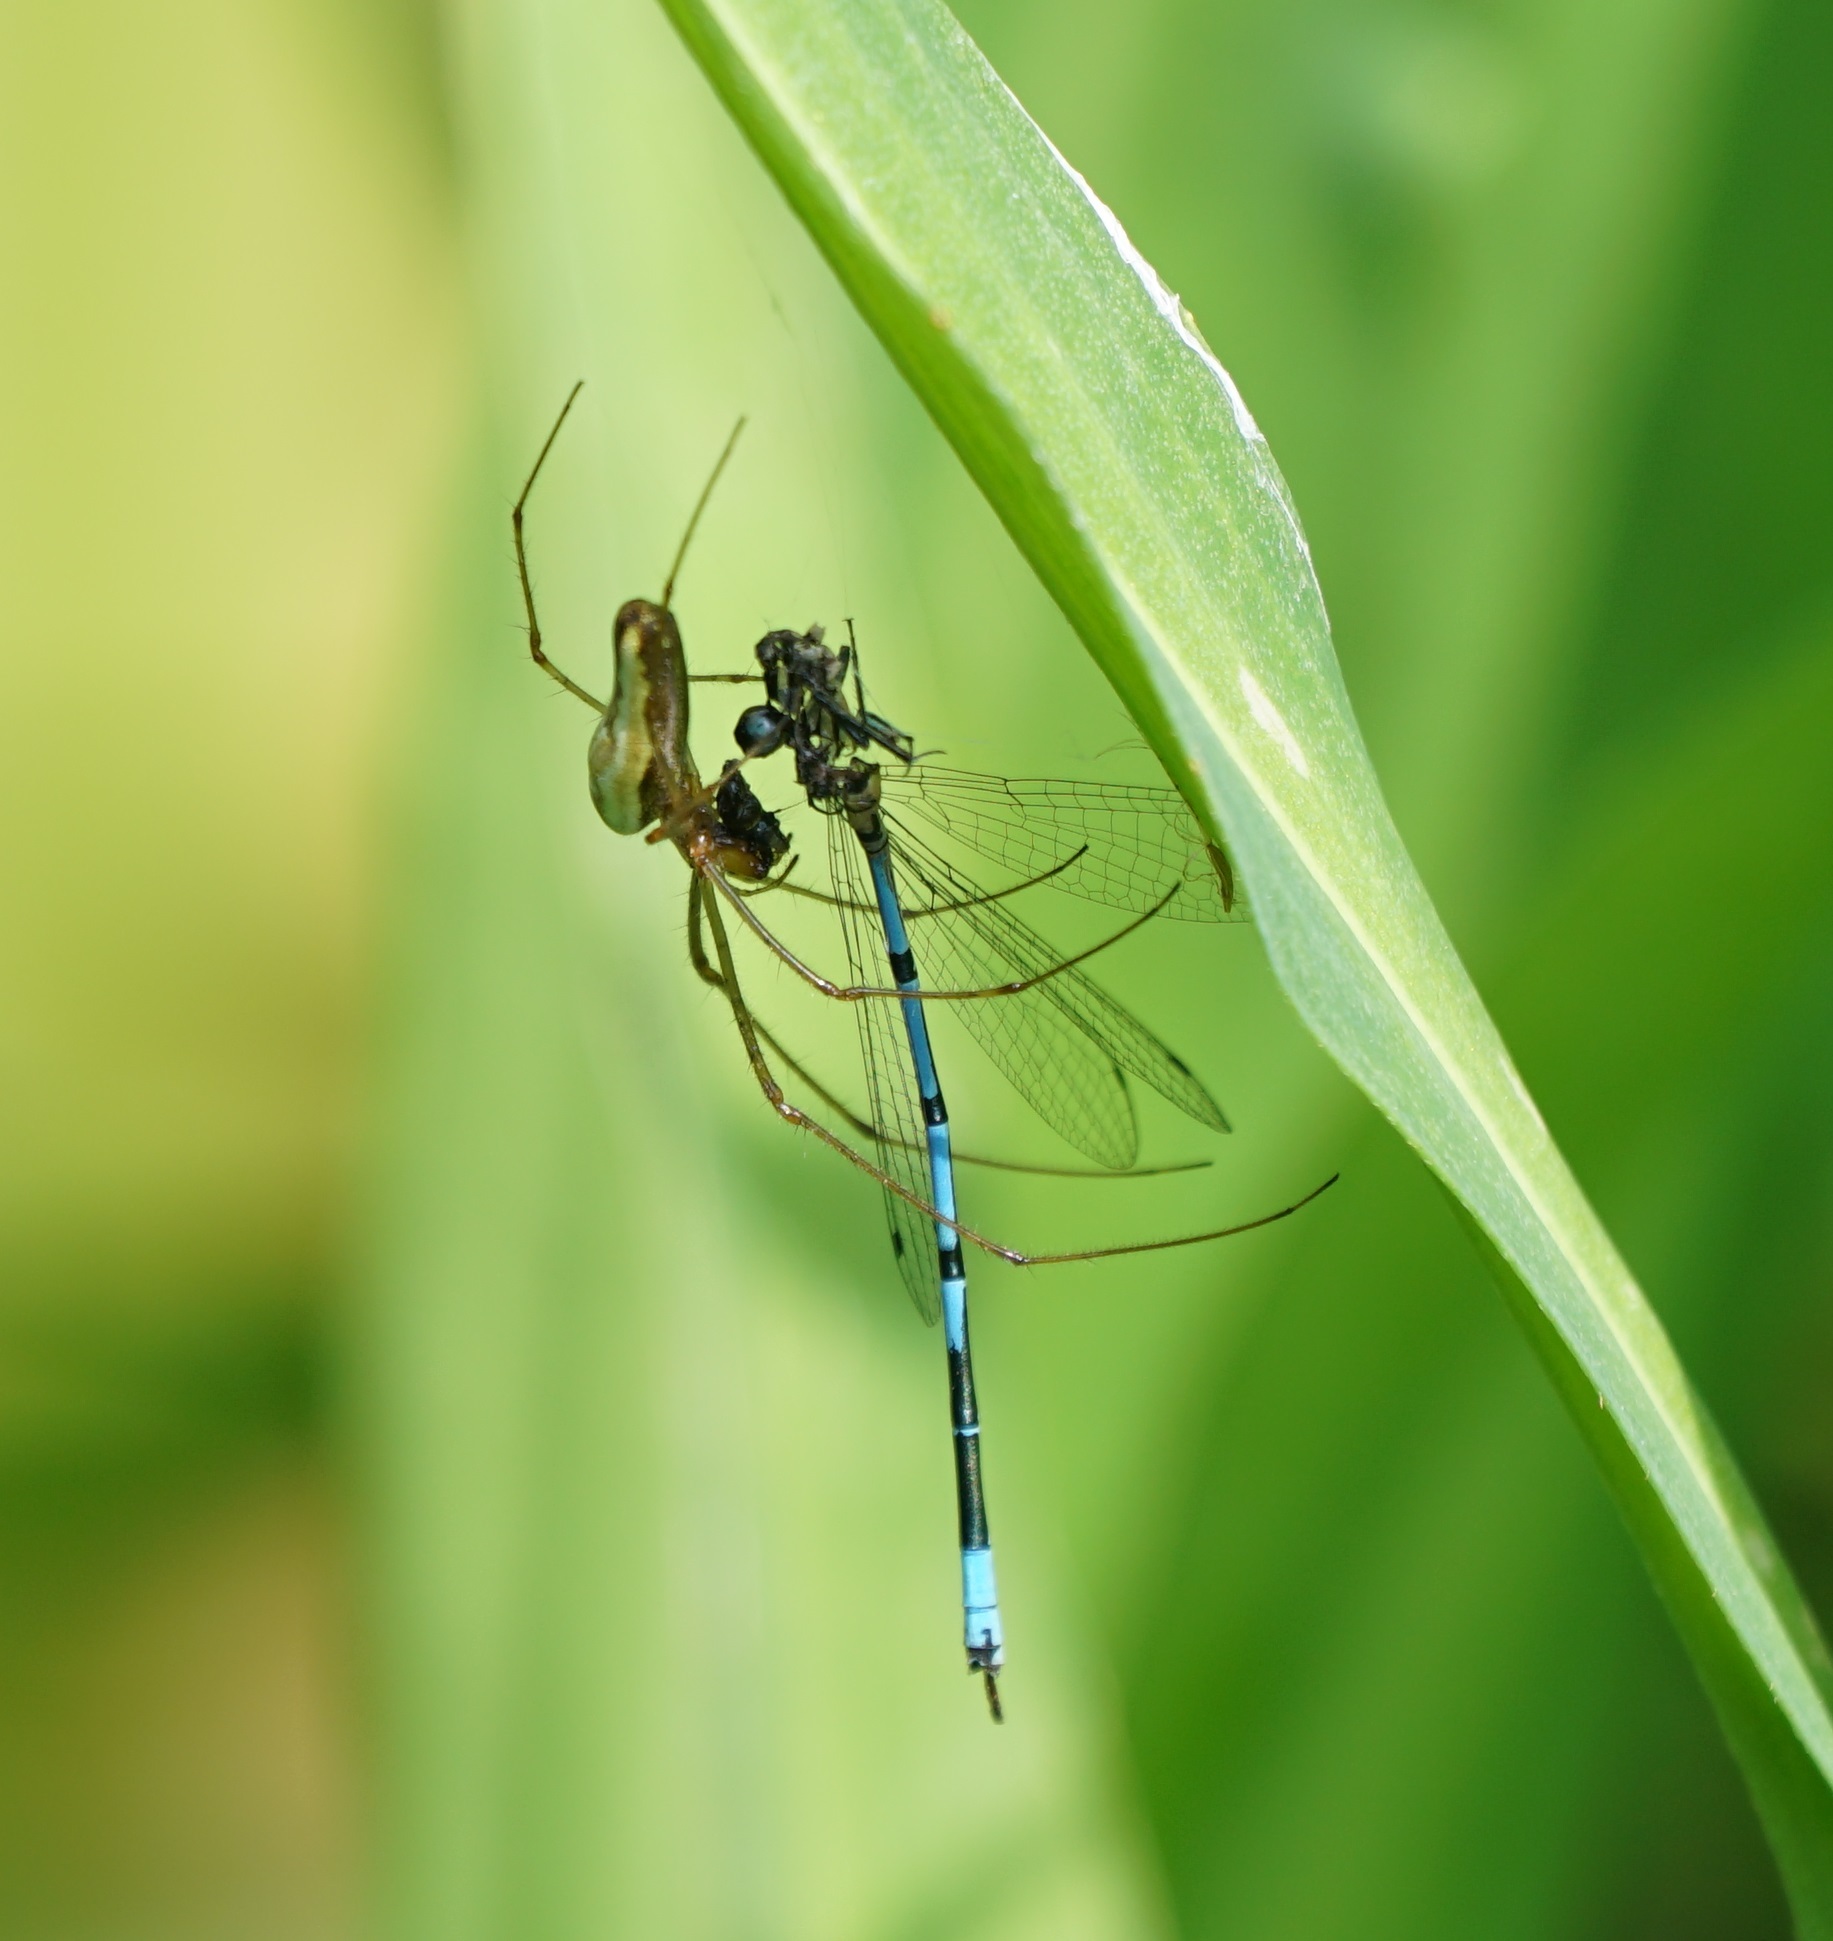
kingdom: Animalia
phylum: Arthropoda
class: Insecta
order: Odonata
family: Coenagrionidae
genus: Coenagrion
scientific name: Coenagrion puella
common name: Azure damselfly
